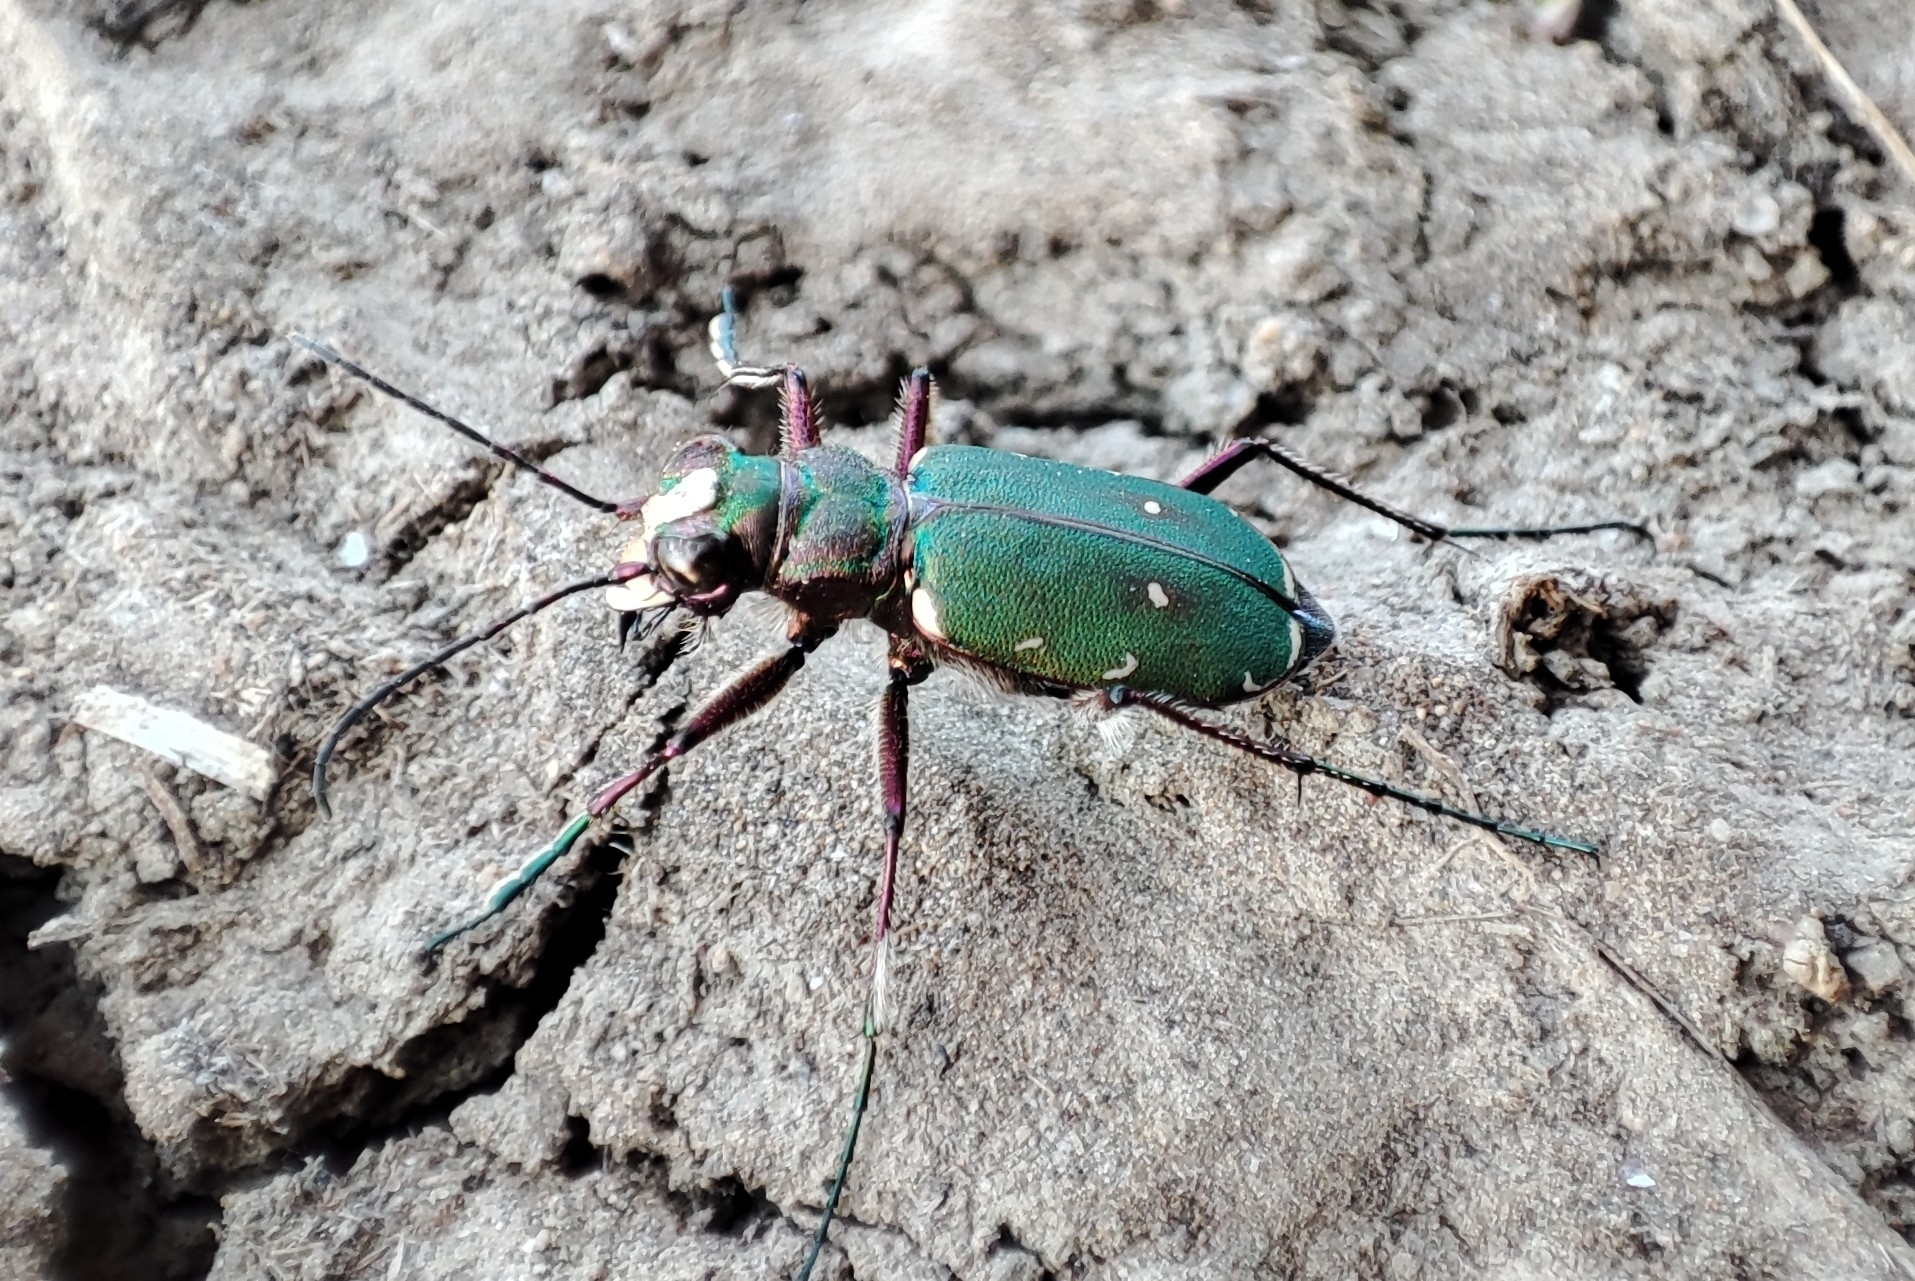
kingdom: Animalia
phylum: Arthropoda
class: Insecta
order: Coleoptera
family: Carabidae
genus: Cicindela
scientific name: Cicindela campestris
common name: Common tiger beetle
